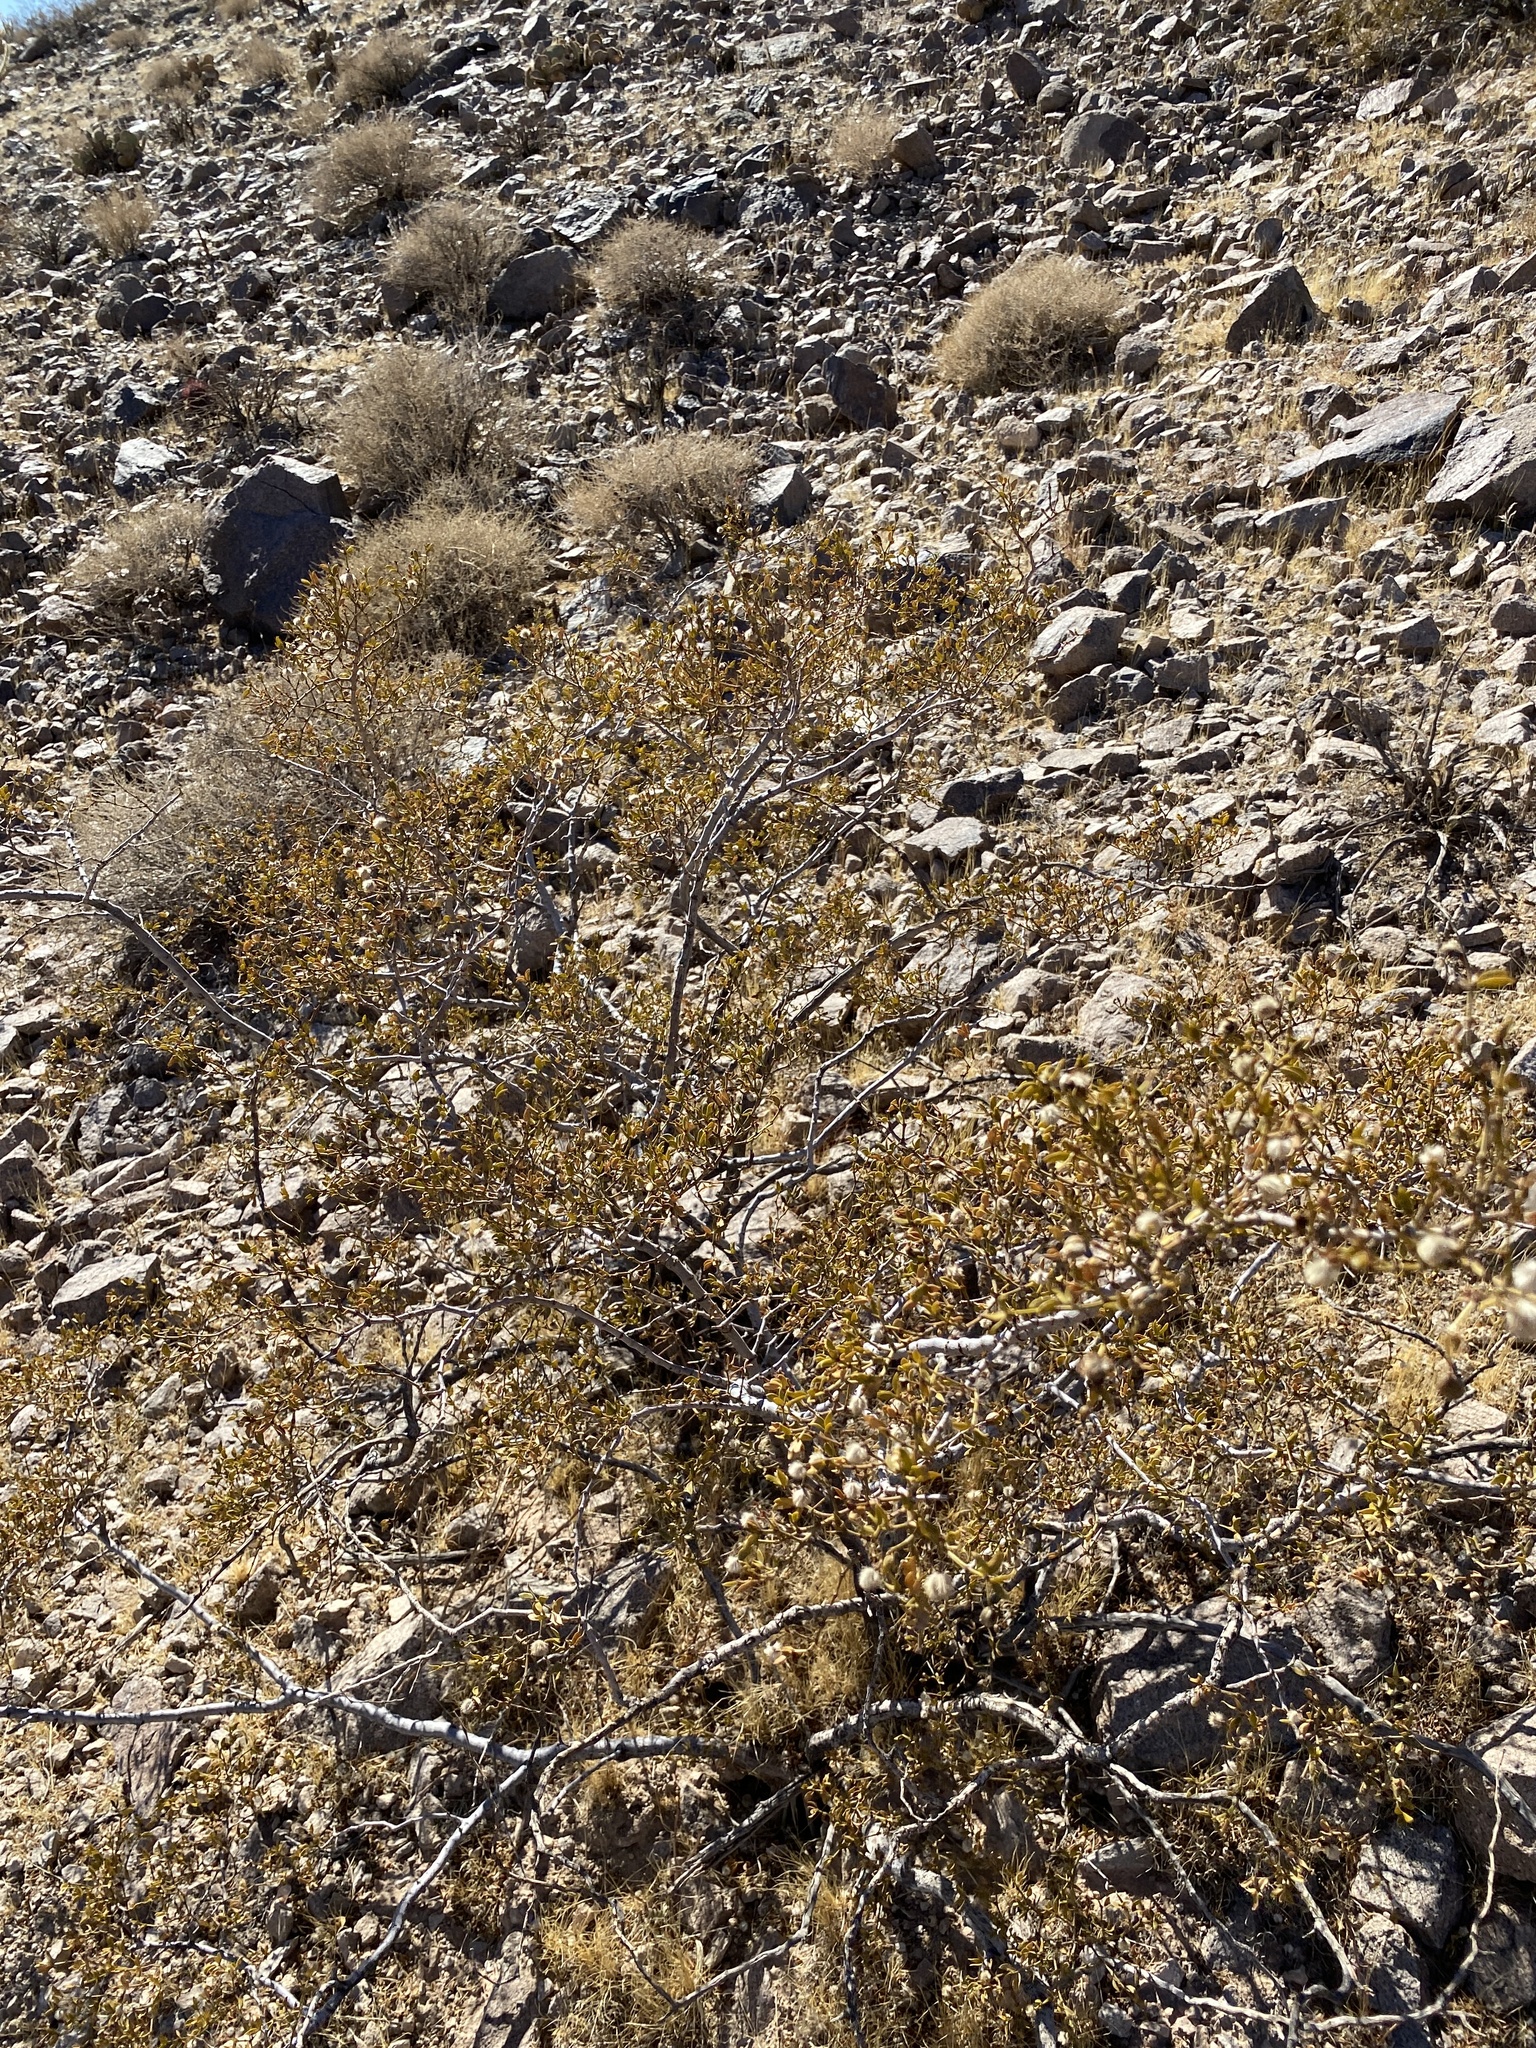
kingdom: Plantae
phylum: Tracheophyta
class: Magnoliopsida
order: Zygophyllales
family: Zygophyllaceae
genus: Larrea
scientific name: Larrea tridentata
